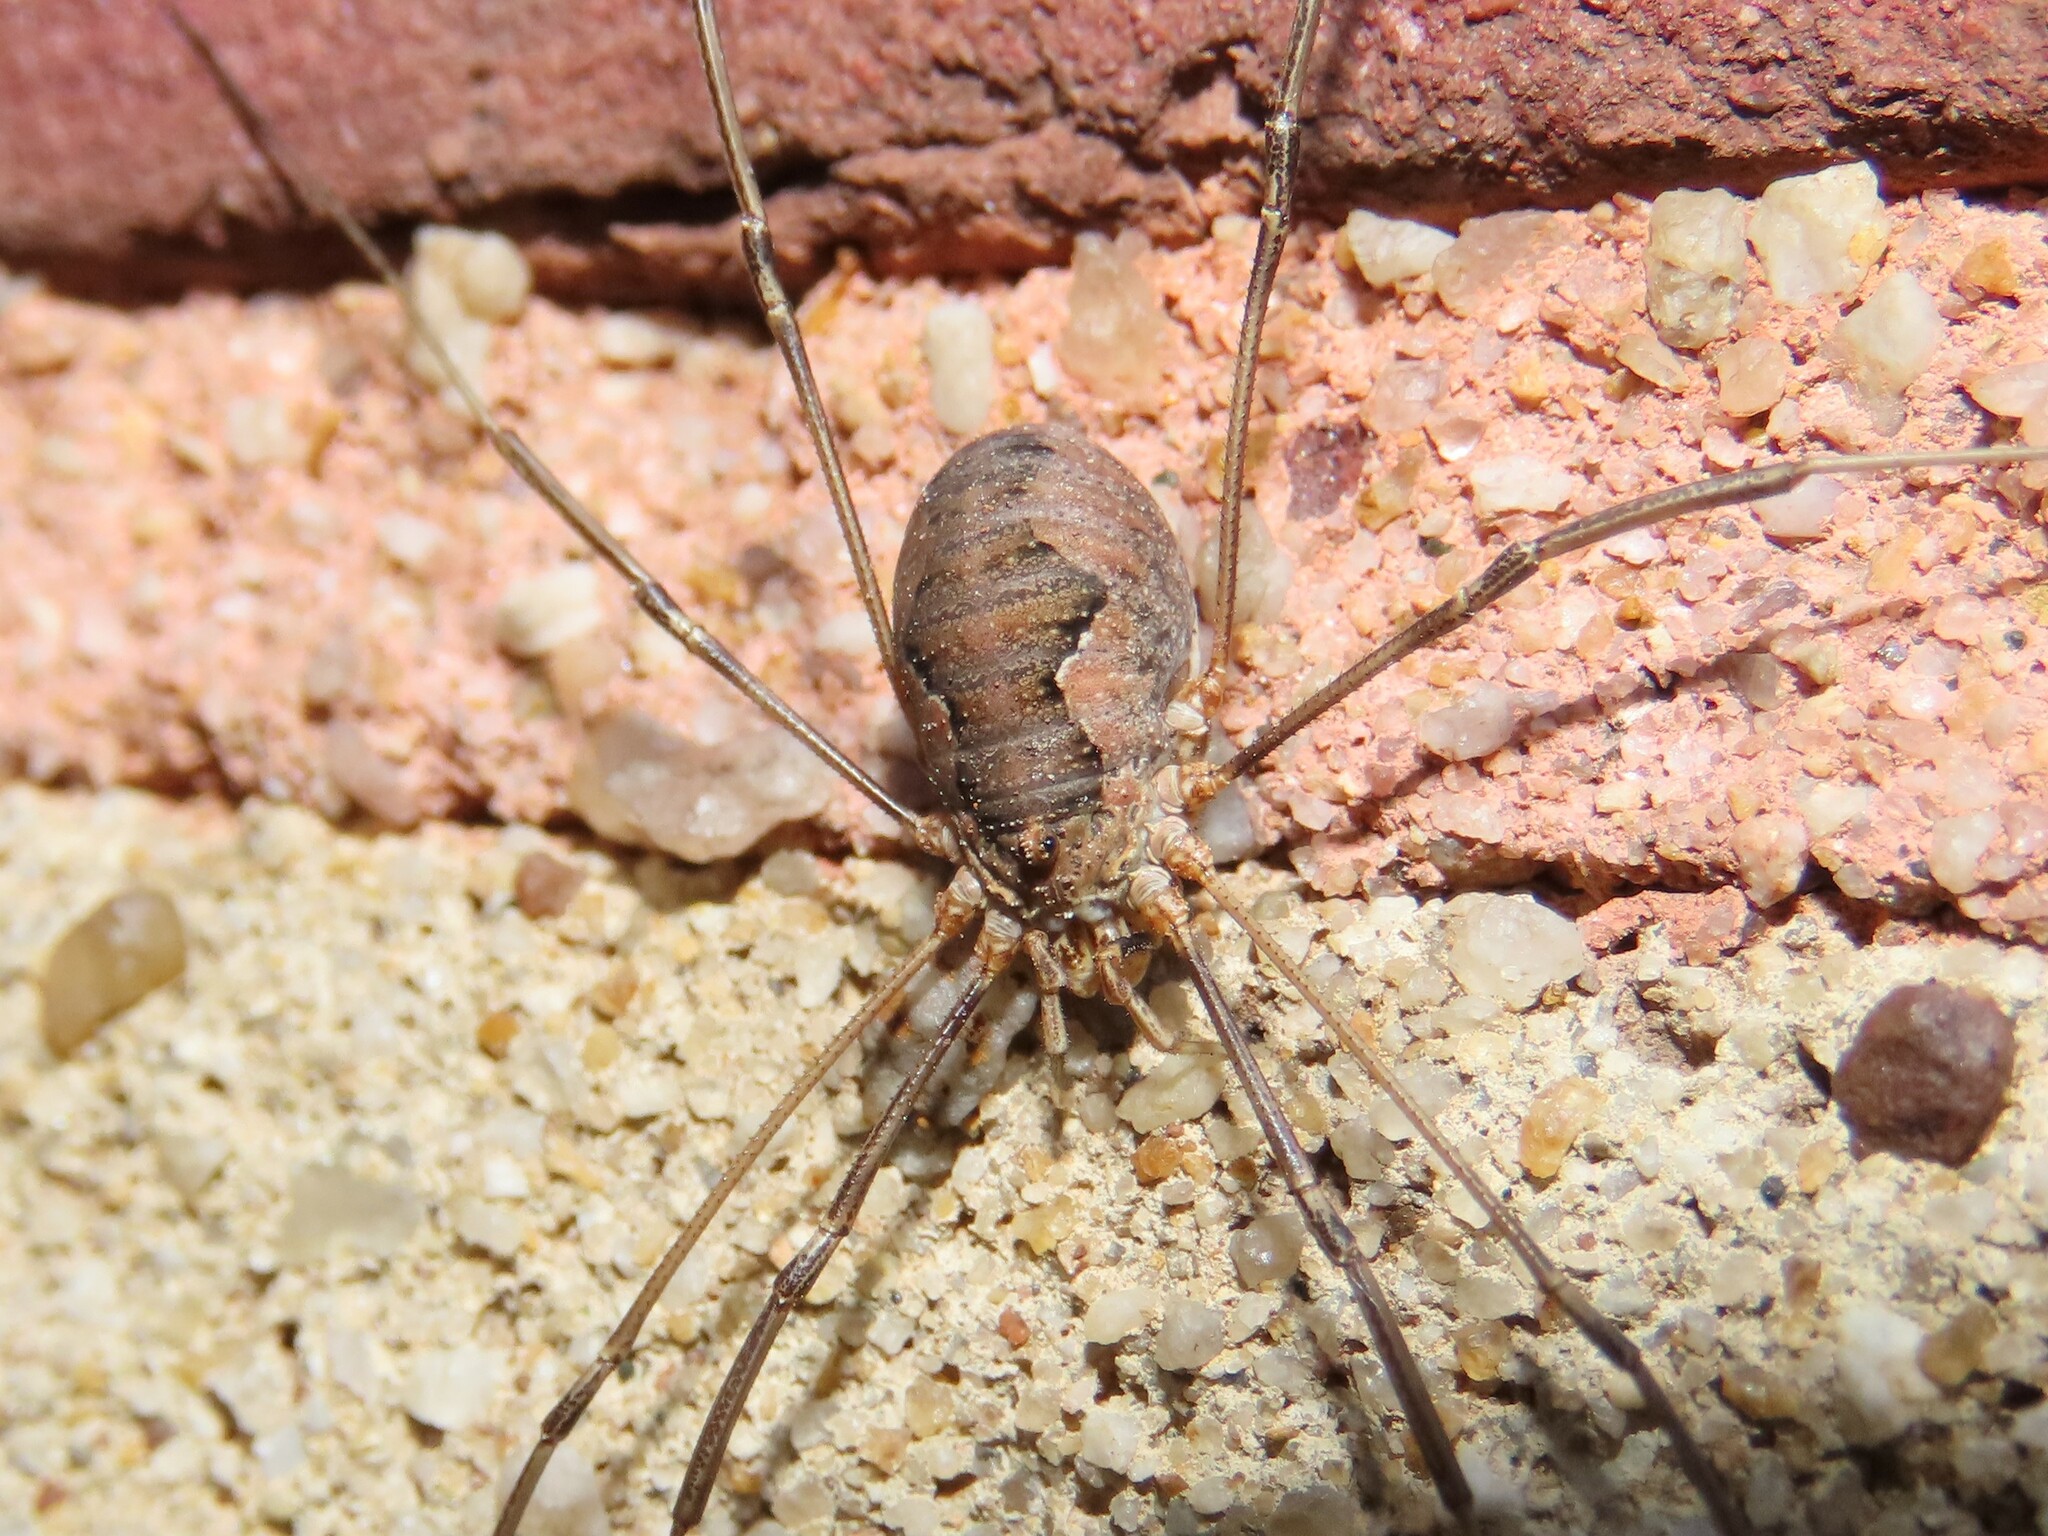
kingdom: Animalia
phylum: Arthropoda
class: Arachnida
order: Opiliones
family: Phalangiidae
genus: Phalangium
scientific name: Phalangium opilio
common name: Daddy longleg
